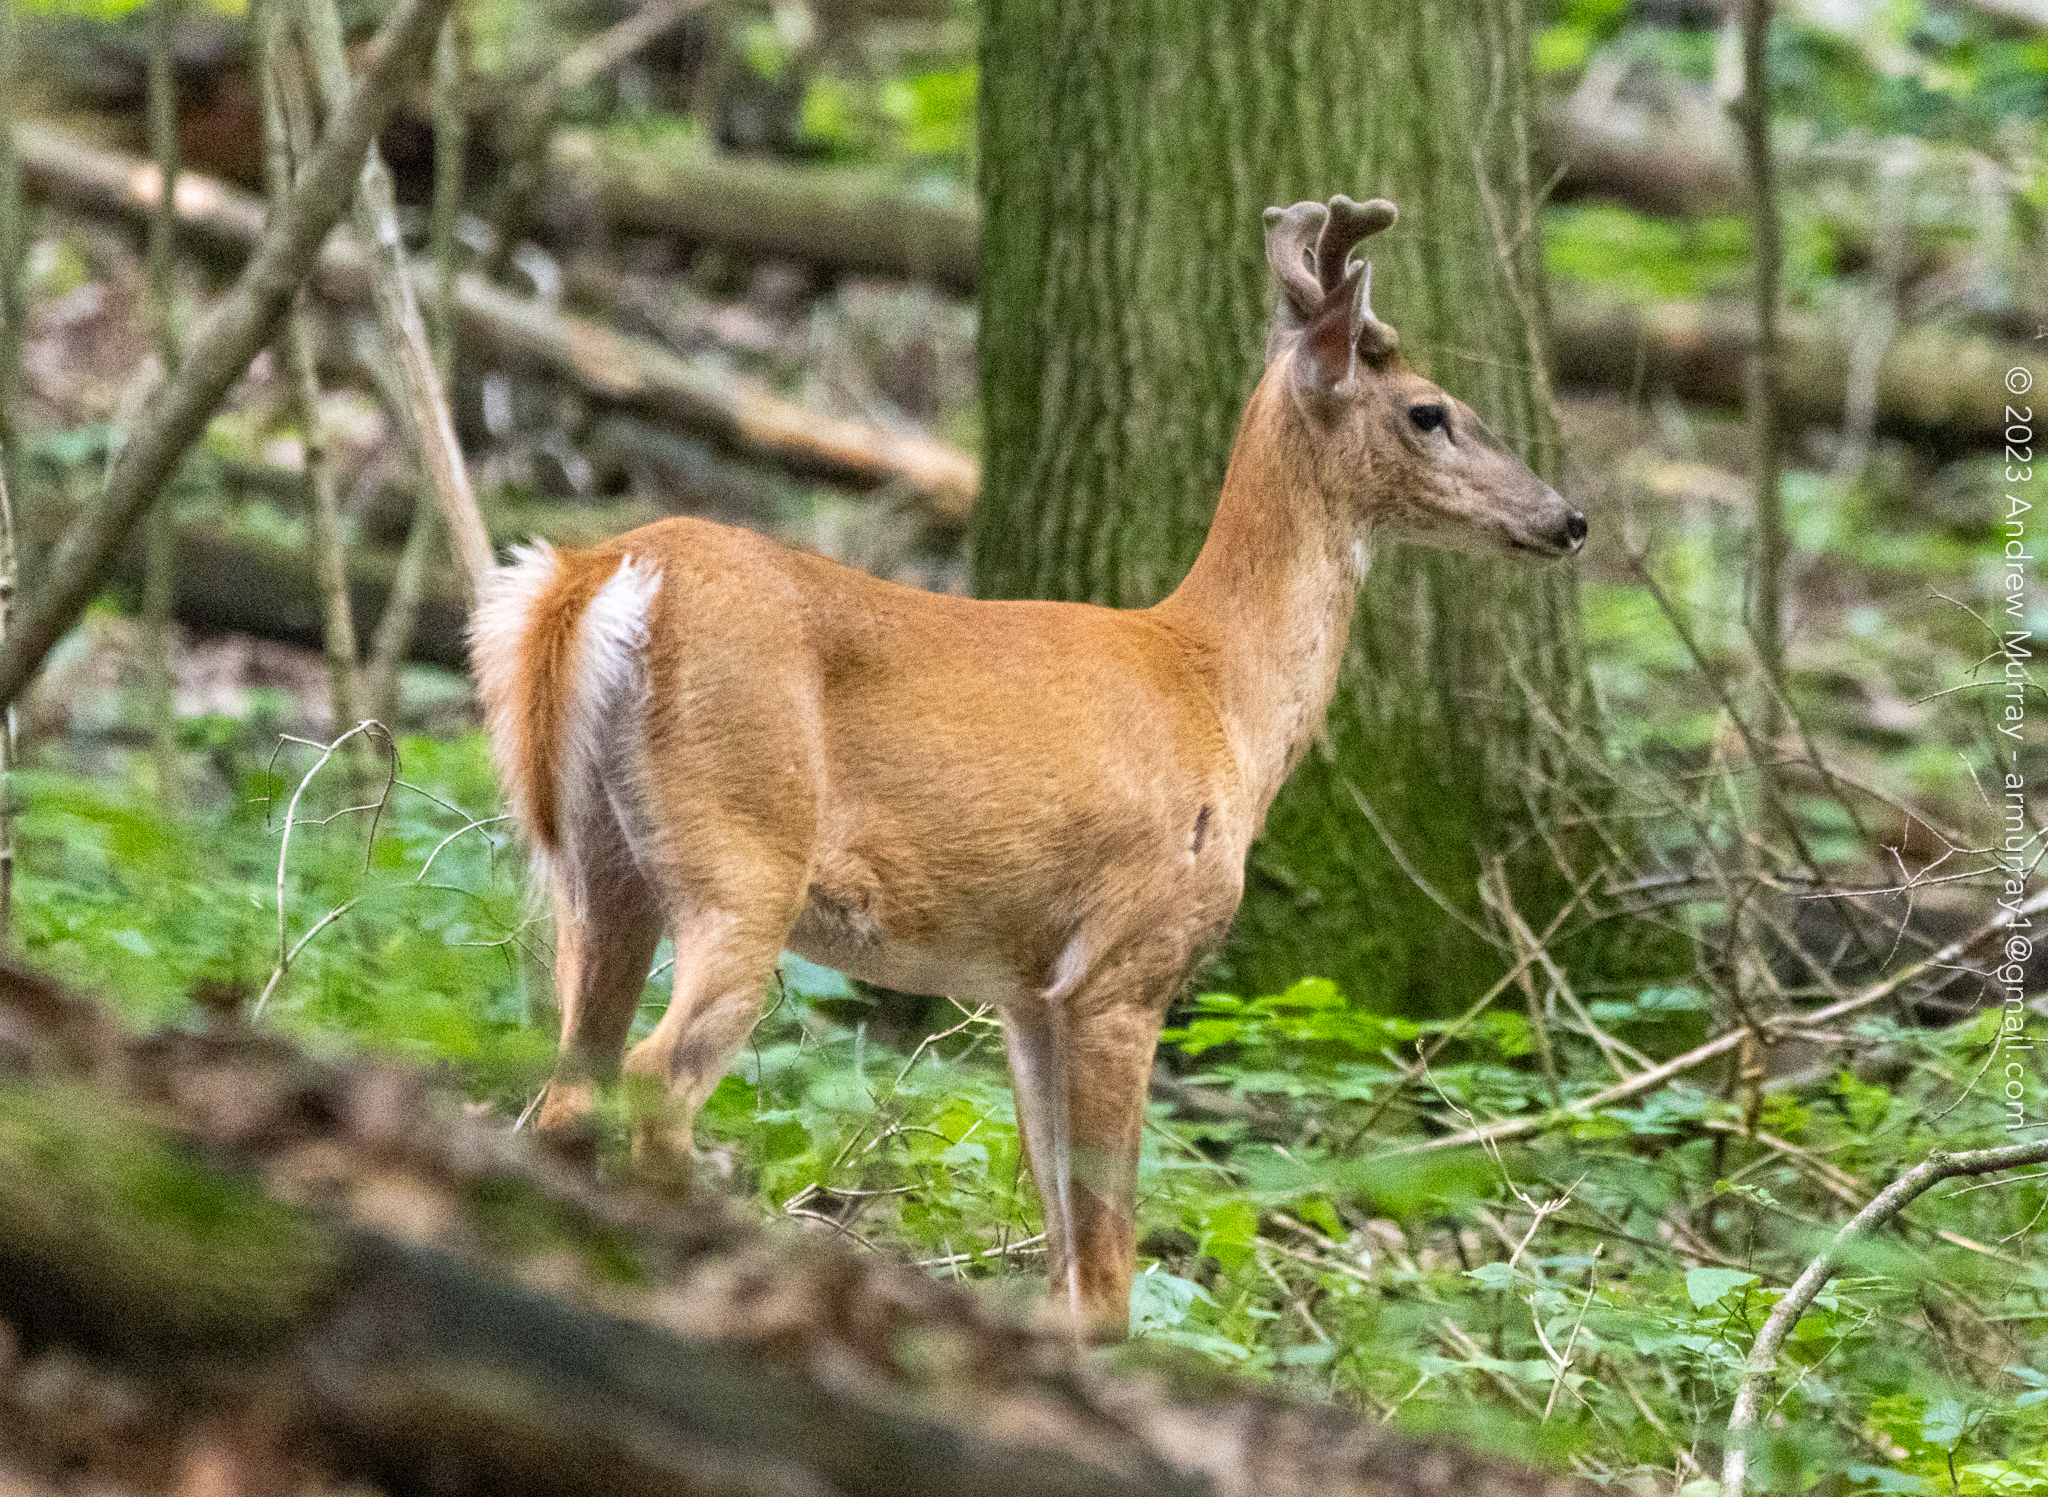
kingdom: Animalia
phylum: Chordata
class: Mammalia
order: Artiodactyla
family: Cervidae
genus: Odocoileus
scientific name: Odocoileus virginianus
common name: White-tailed deer
